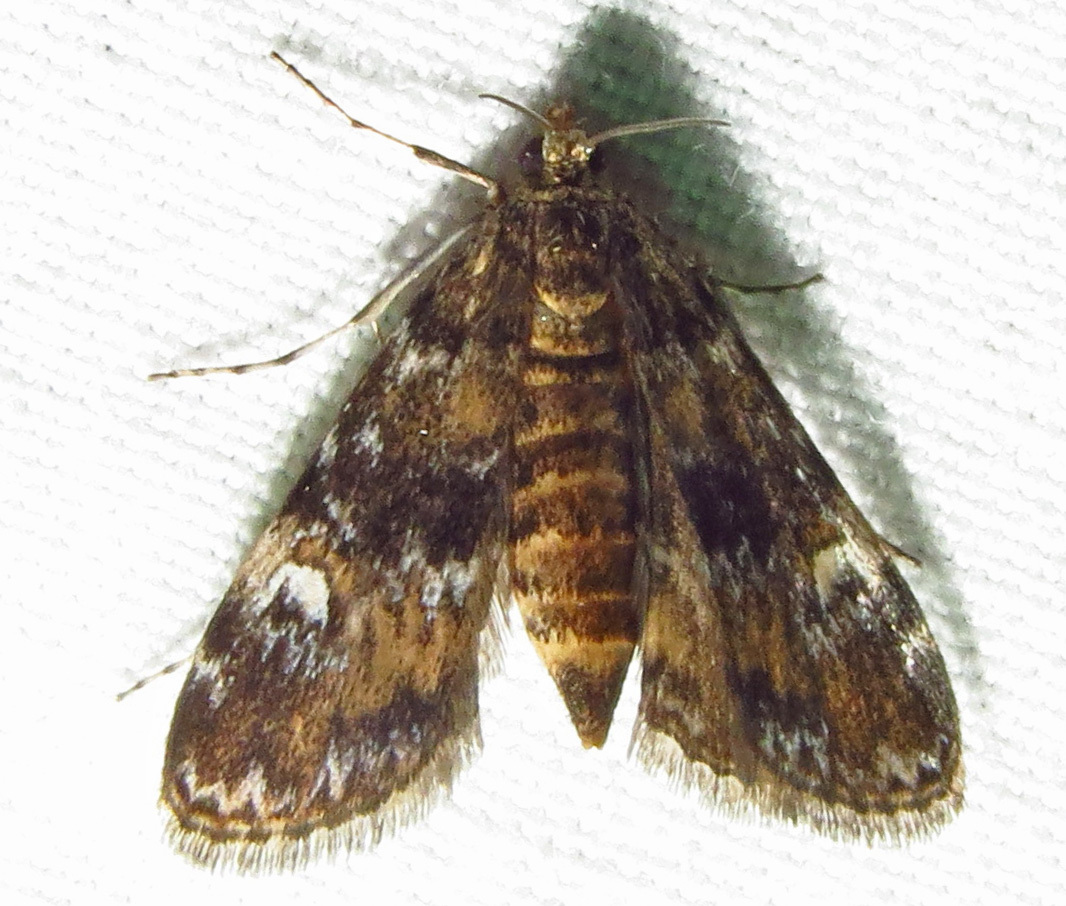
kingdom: Animalia
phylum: Arthropoda
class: Insecta
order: Lepidoptera
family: Crambidae
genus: Elophila
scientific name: Elophila obliteralis
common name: Waterlily leafcutter moth
